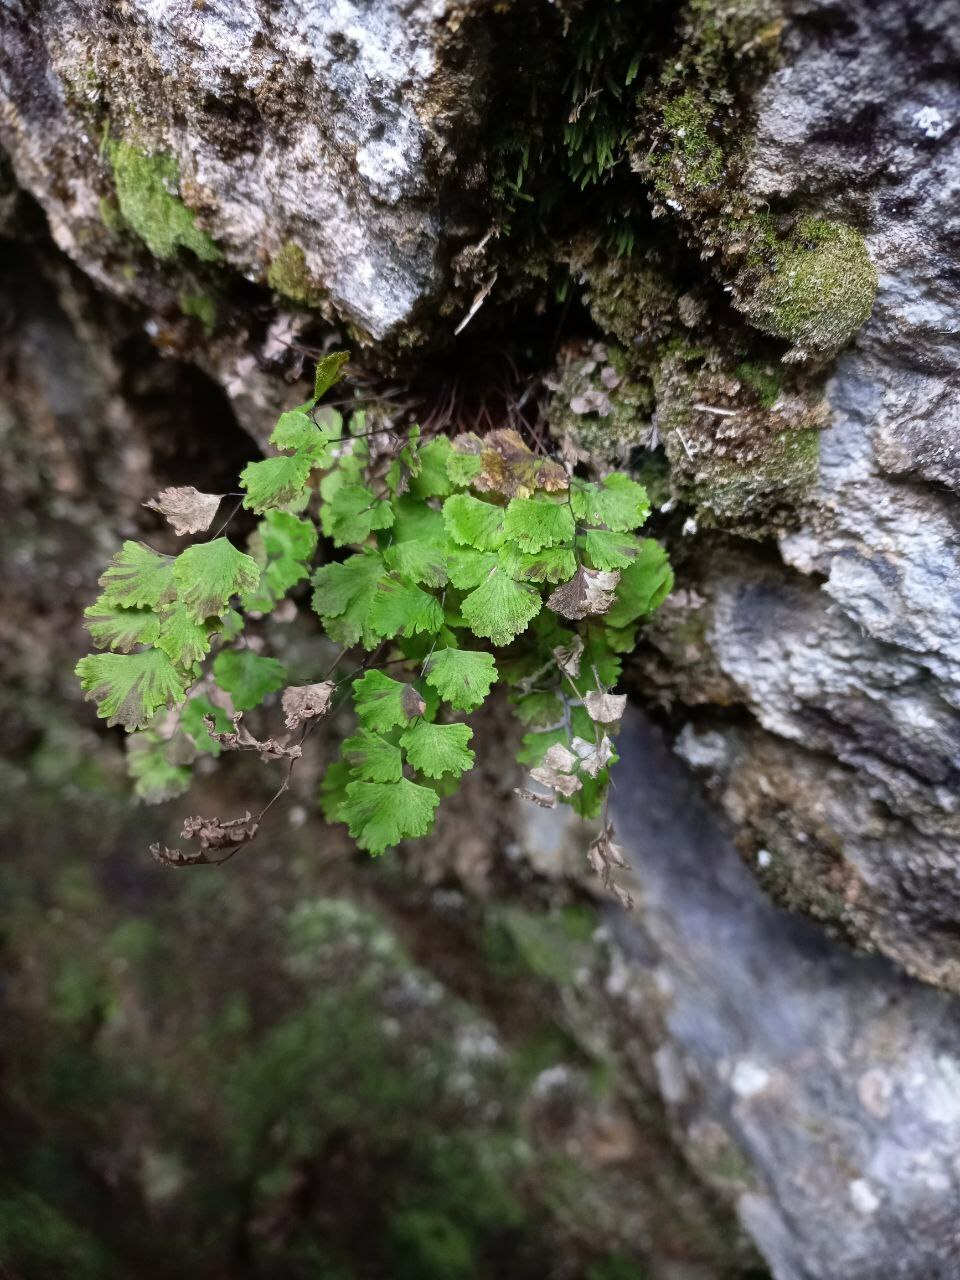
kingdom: Plantae
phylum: Tracheophyta
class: Polypodiopsida
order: Polypodiales
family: Pteridaceae
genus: Adiantum
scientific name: Adiantum sulphureum
